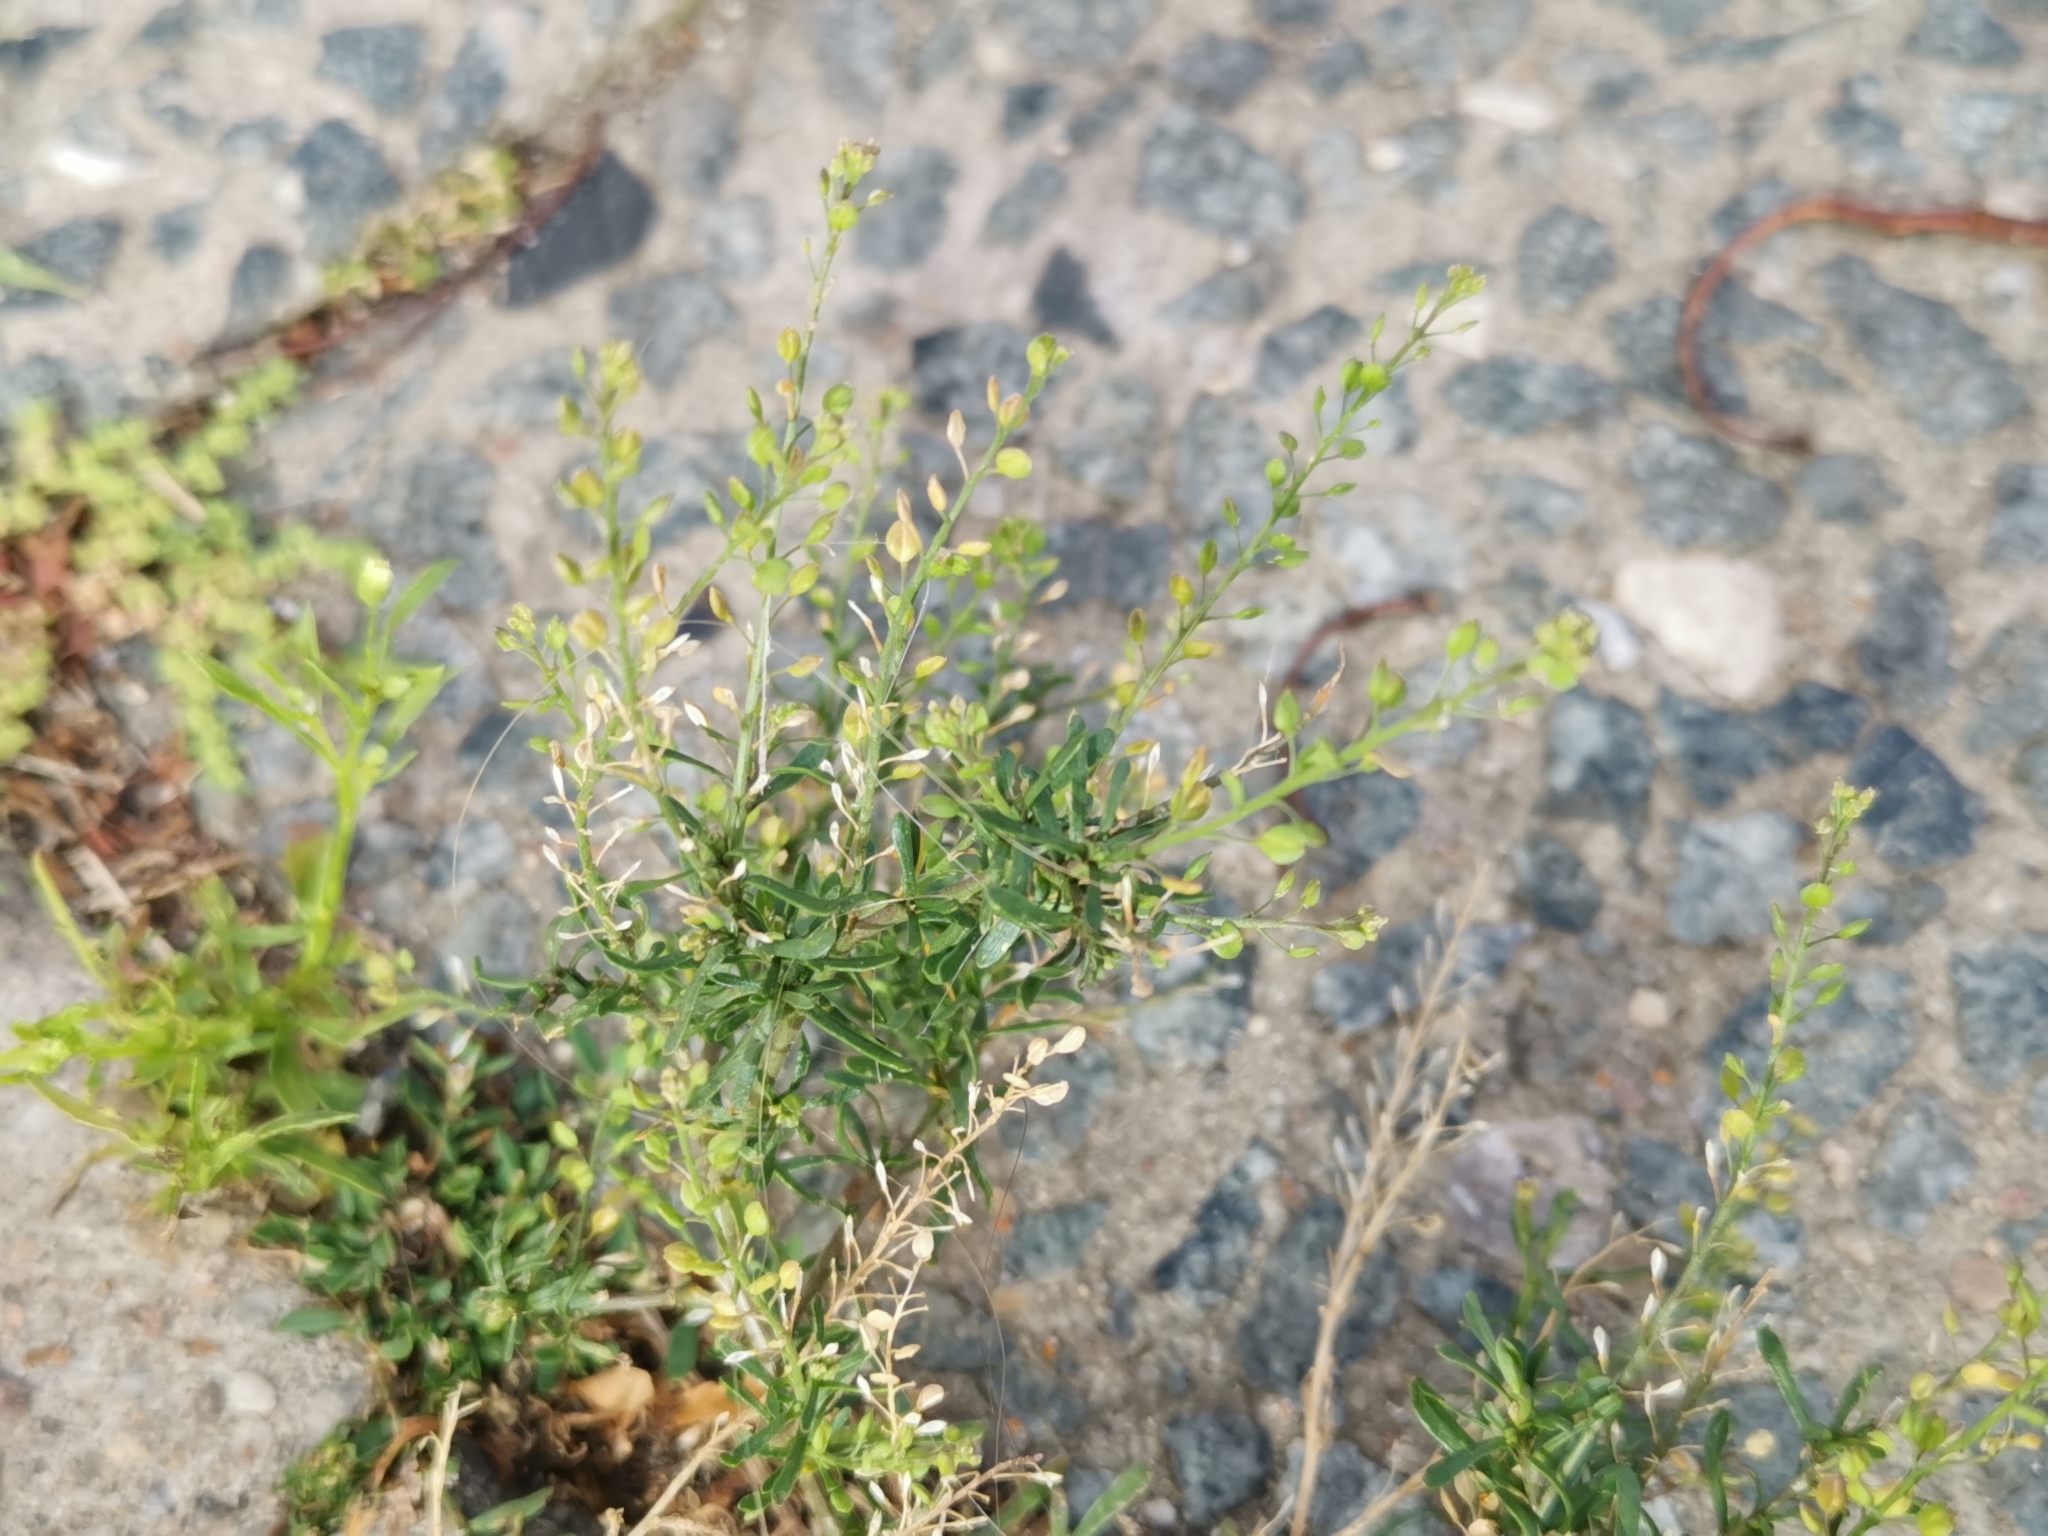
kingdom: Plantae
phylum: Tracheophyta
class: Magnoliopsida
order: Brassicales
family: Brassicaceae
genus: Lepidium
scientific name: Lepidium ruderale
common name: Narrow-leaved pepperwort
